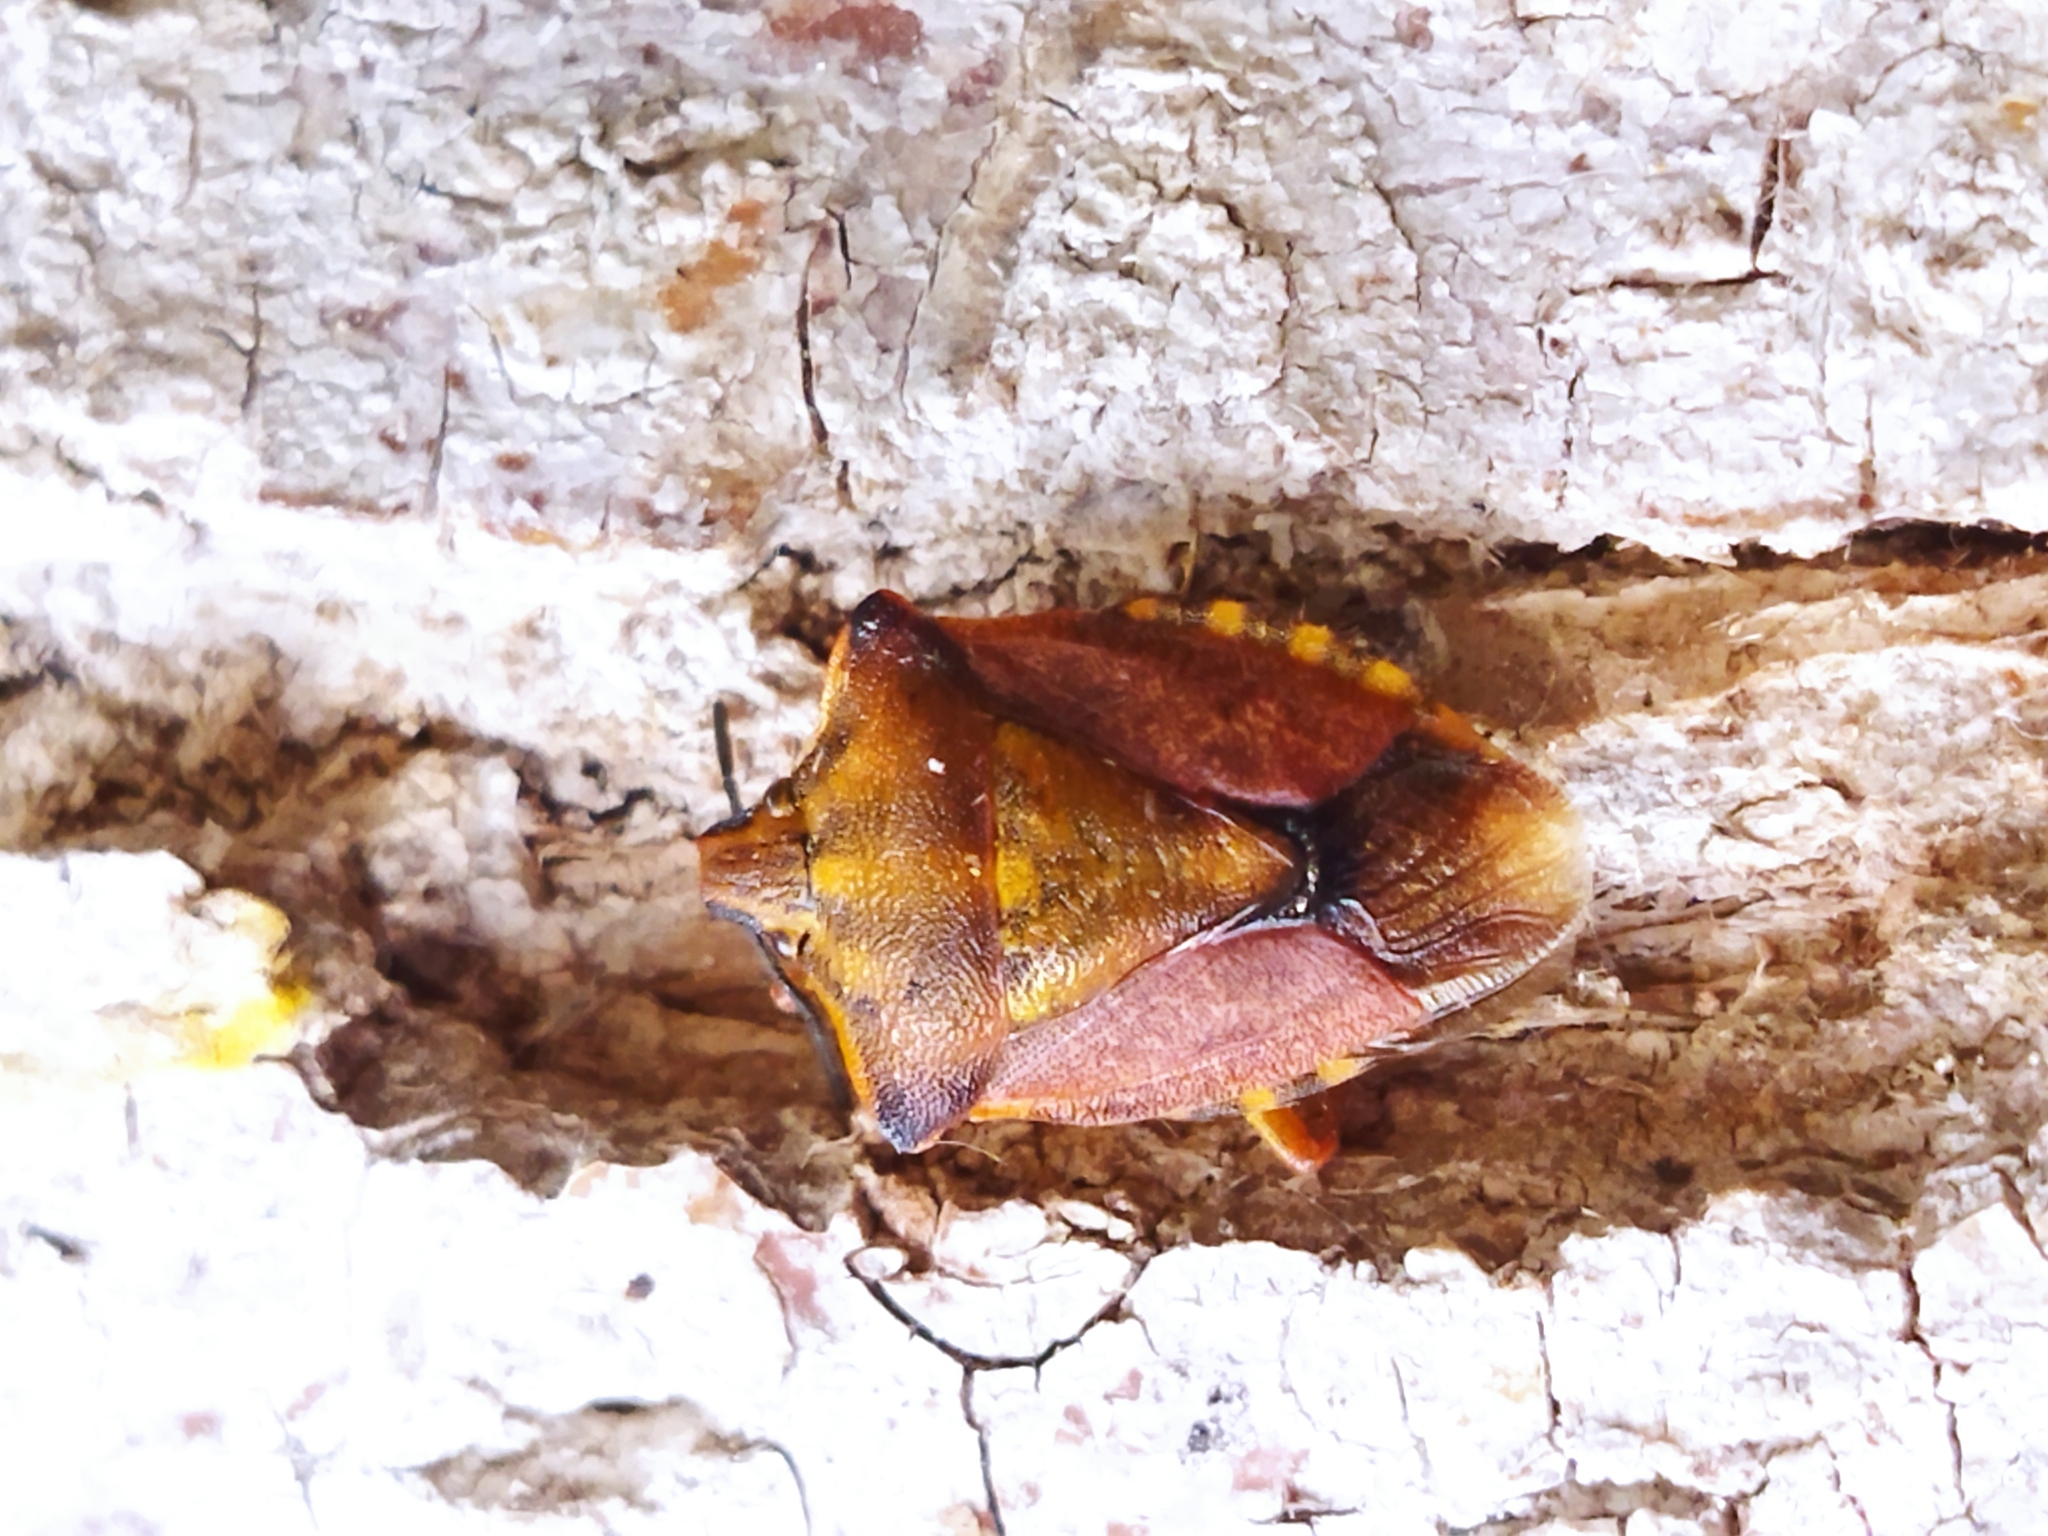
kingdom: Animalia
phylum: Arthropoda
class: Insecta
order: Hemiptera
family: Pentatomidae
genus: Carpocoris
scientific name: Carpocoris purpureipennis
